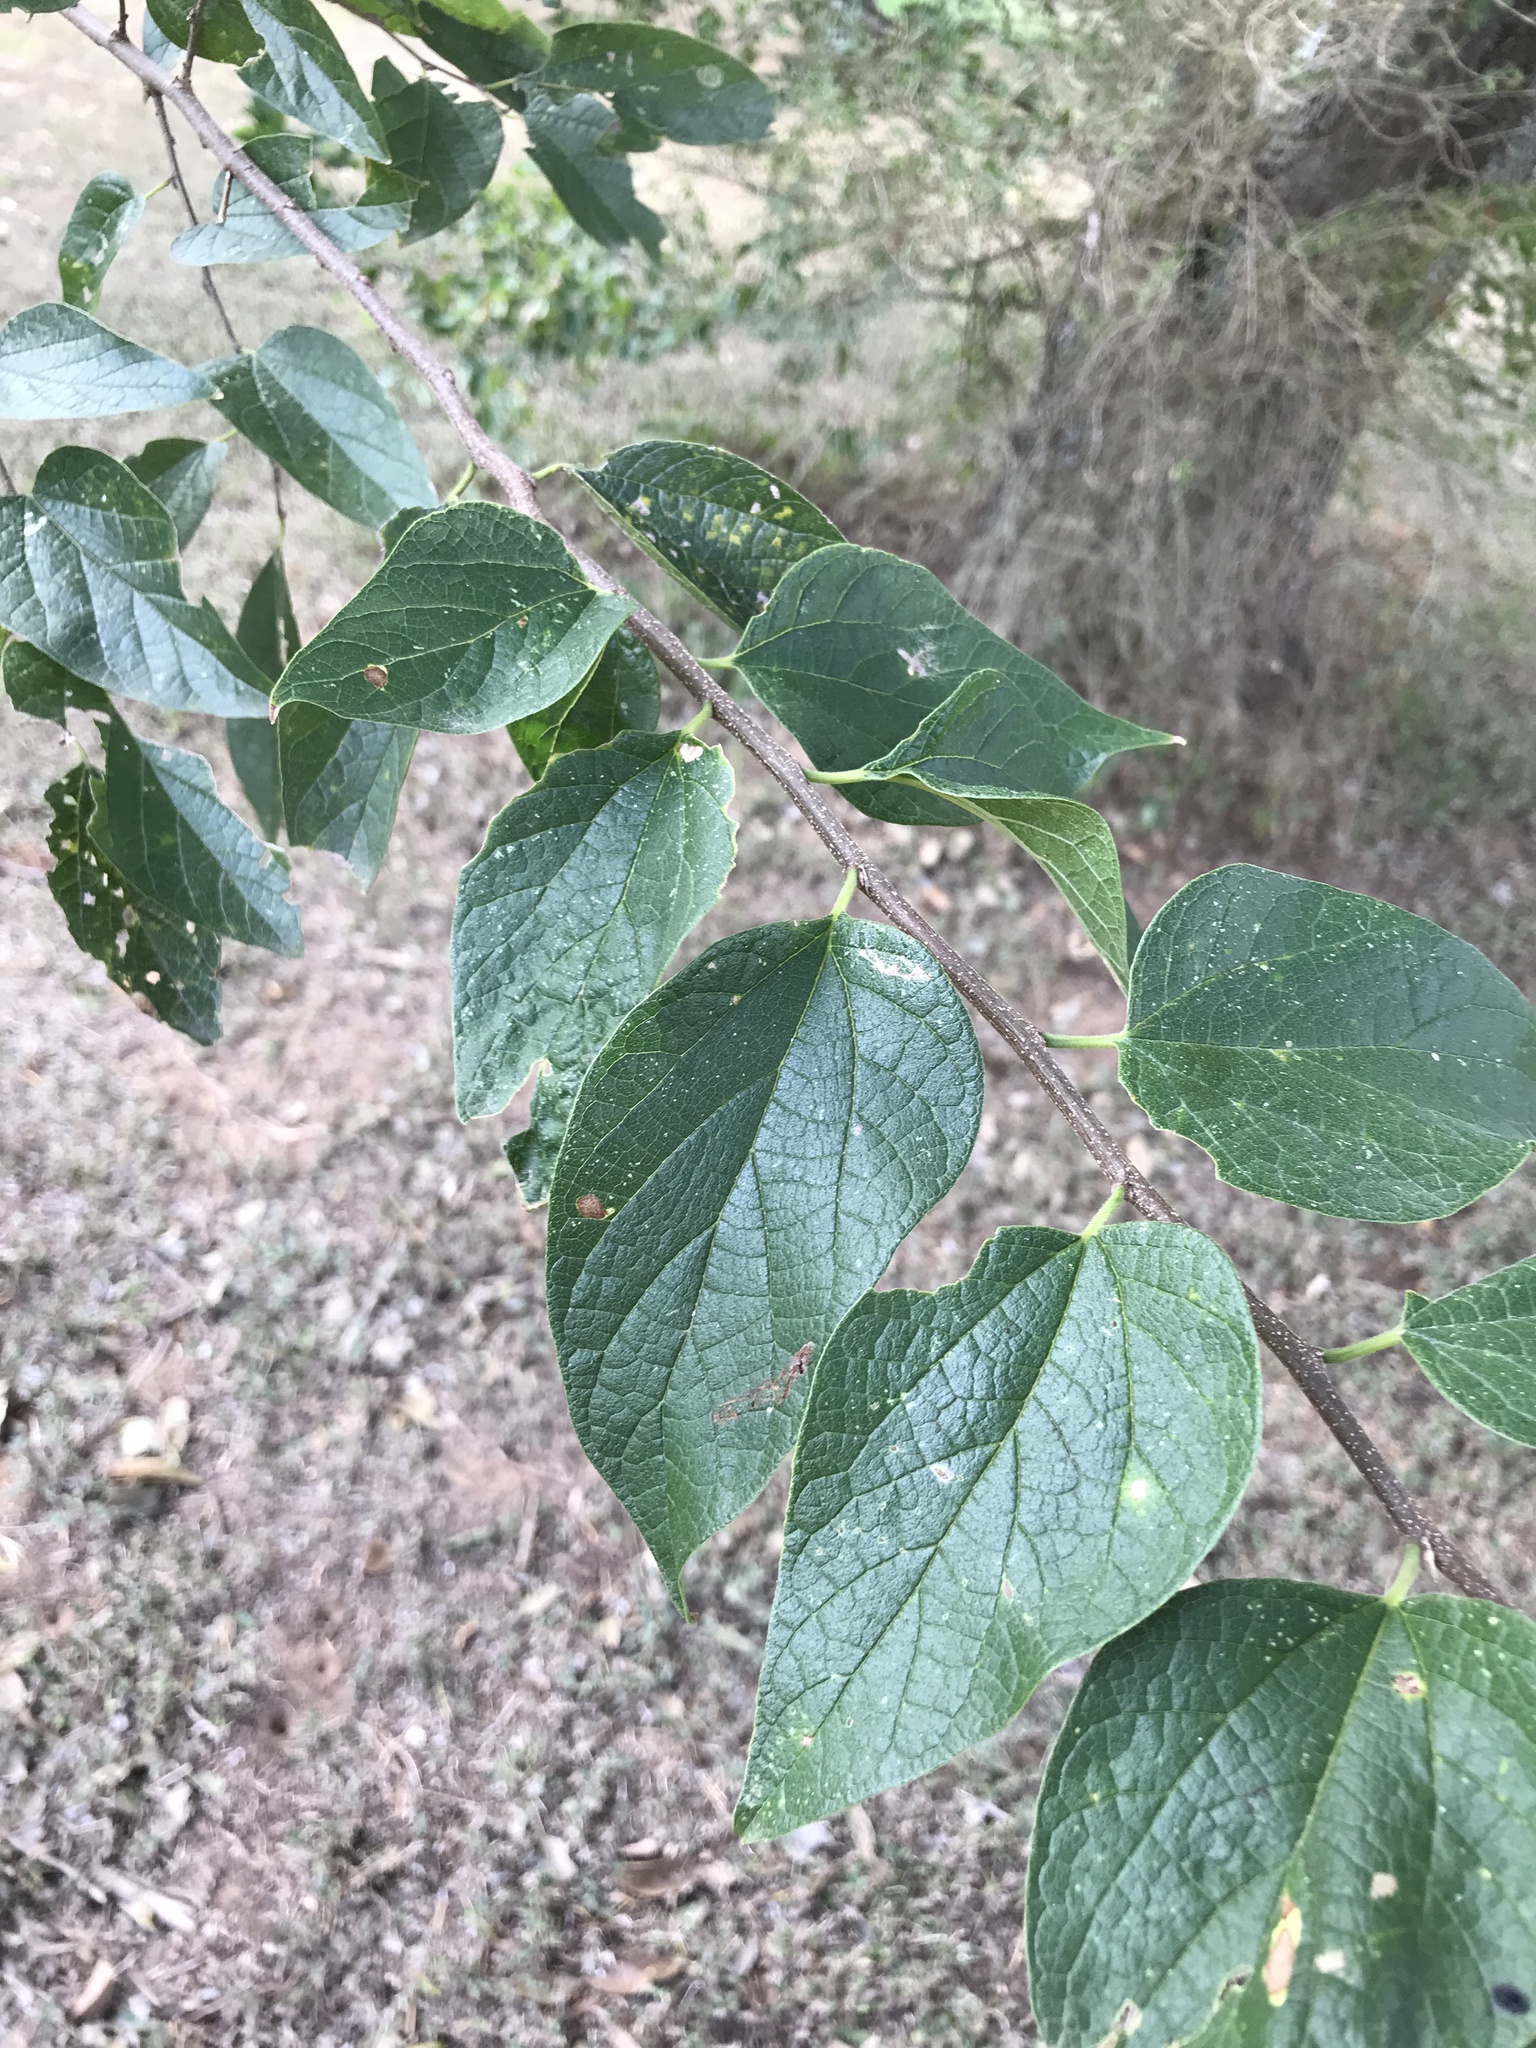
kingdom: Plantae
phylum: Tracheophyta
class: Magnoliopsida
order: Rosales
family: Cannabaceae
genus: Celtis
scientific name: Celtis reticulata
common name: Netleaf hackberry
